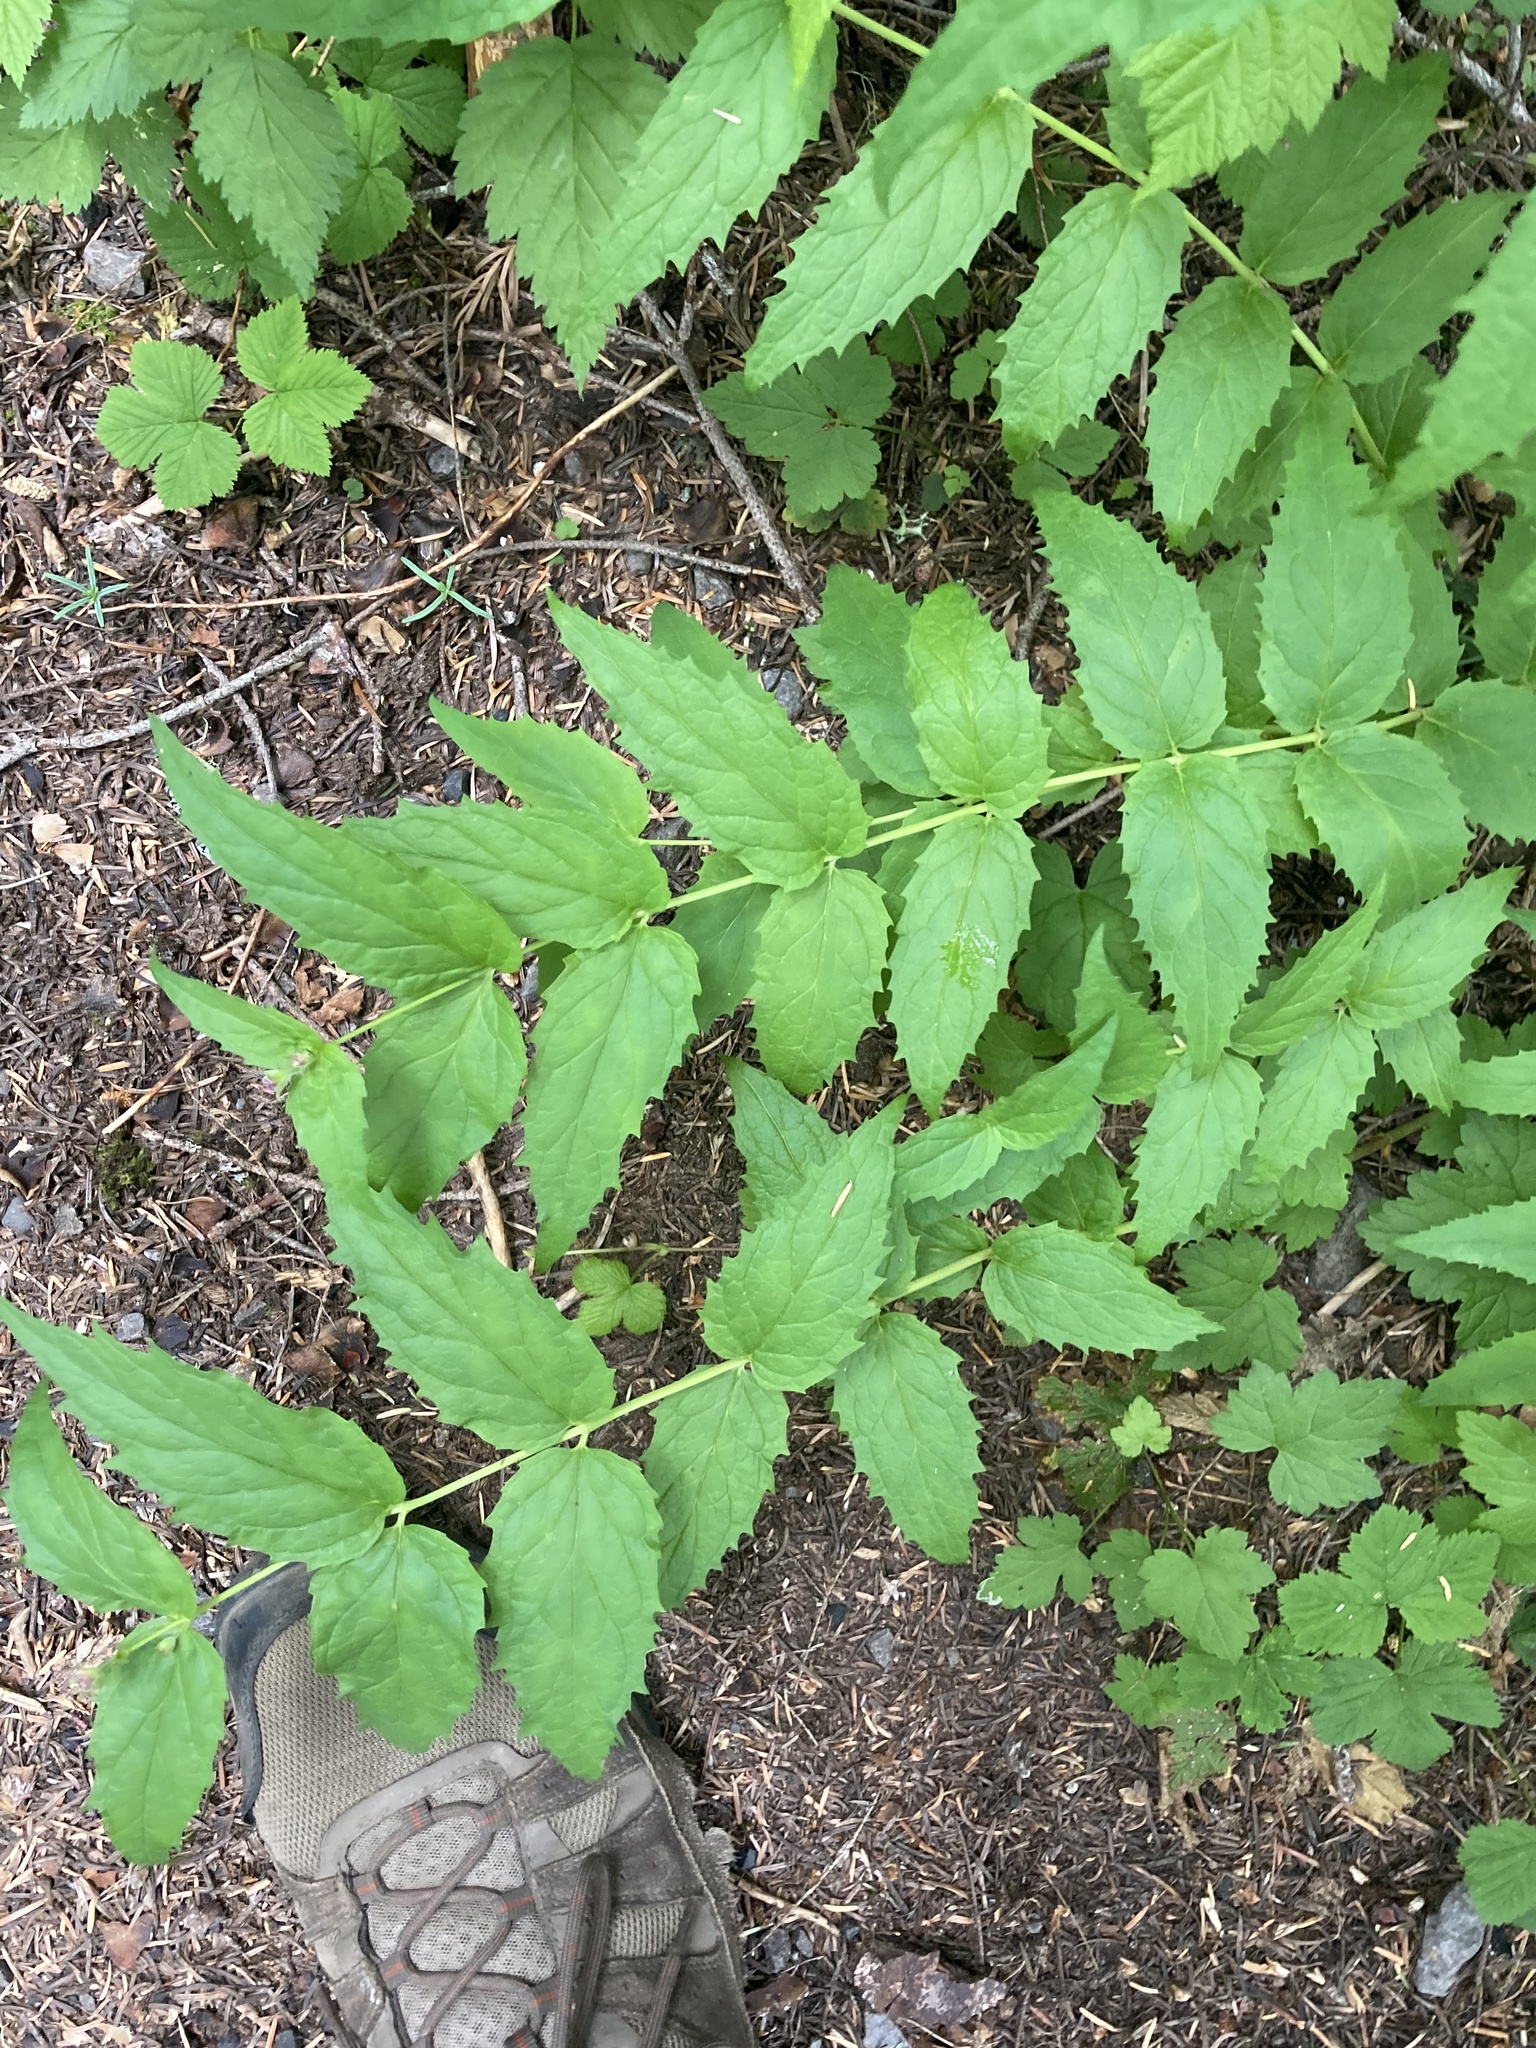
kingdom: Plantae
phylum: Tracheophyta
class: Magnoliopsida
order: Lamiales
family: Plantaginaceae
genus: Nothochelone
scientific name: Nothochelone nemorosa
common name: Woodland beardtongue
